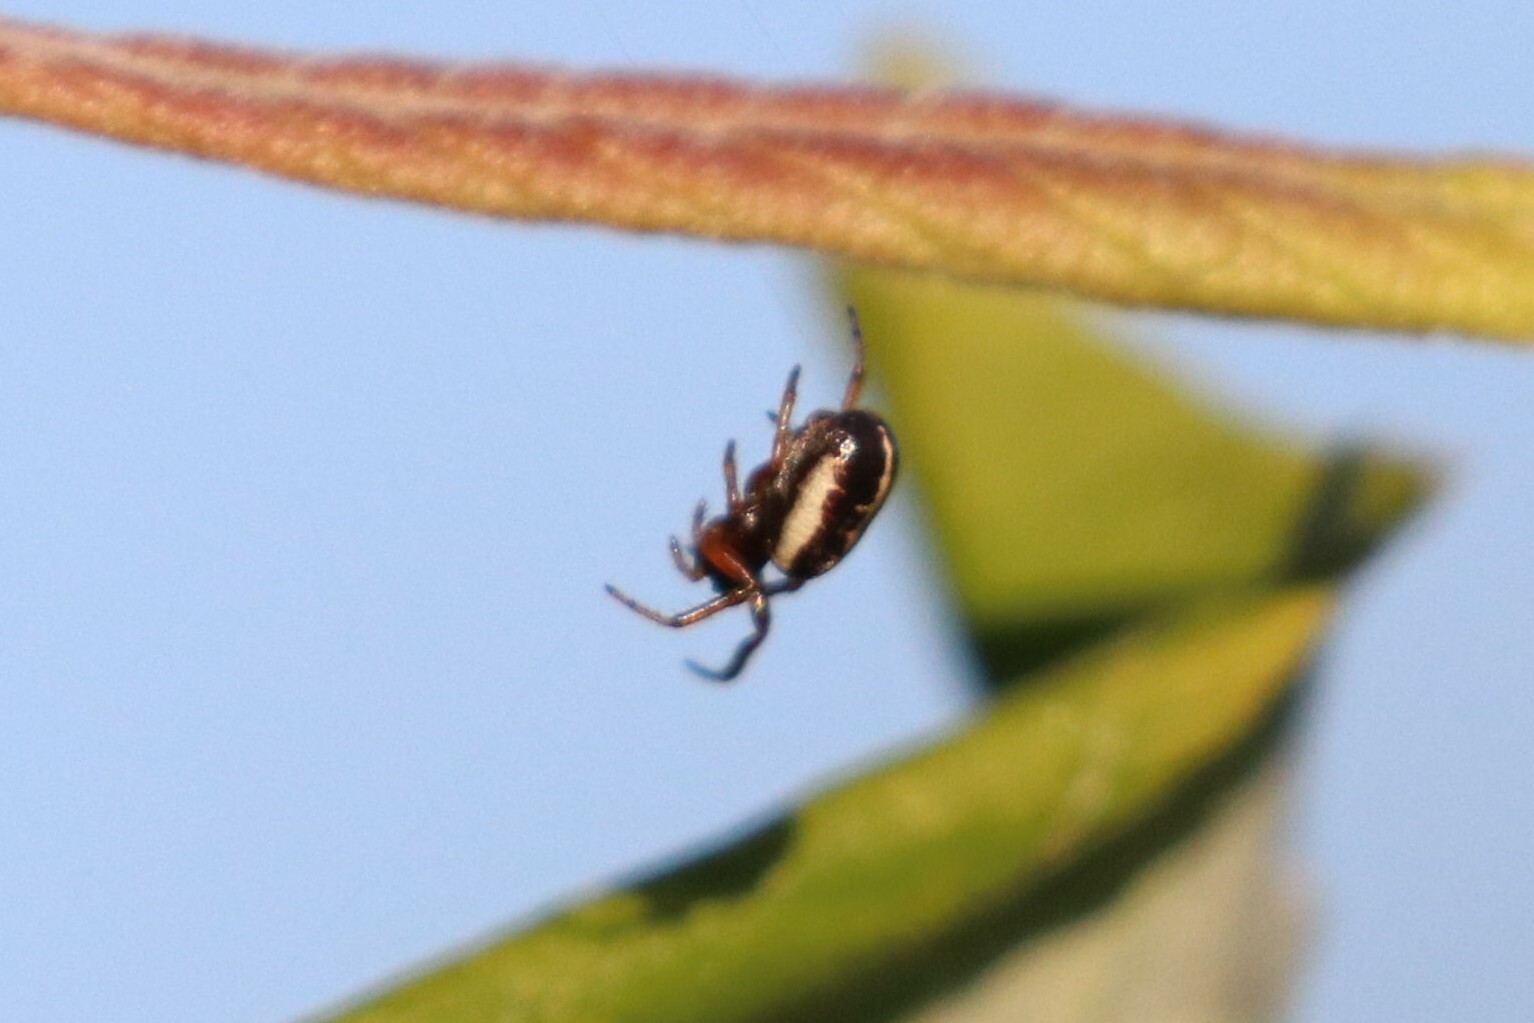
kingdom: Animalia
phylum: Arthropoda
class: Arachnida
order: Araneae
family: Araneidae
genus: Singa
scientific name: Singa nitidula
